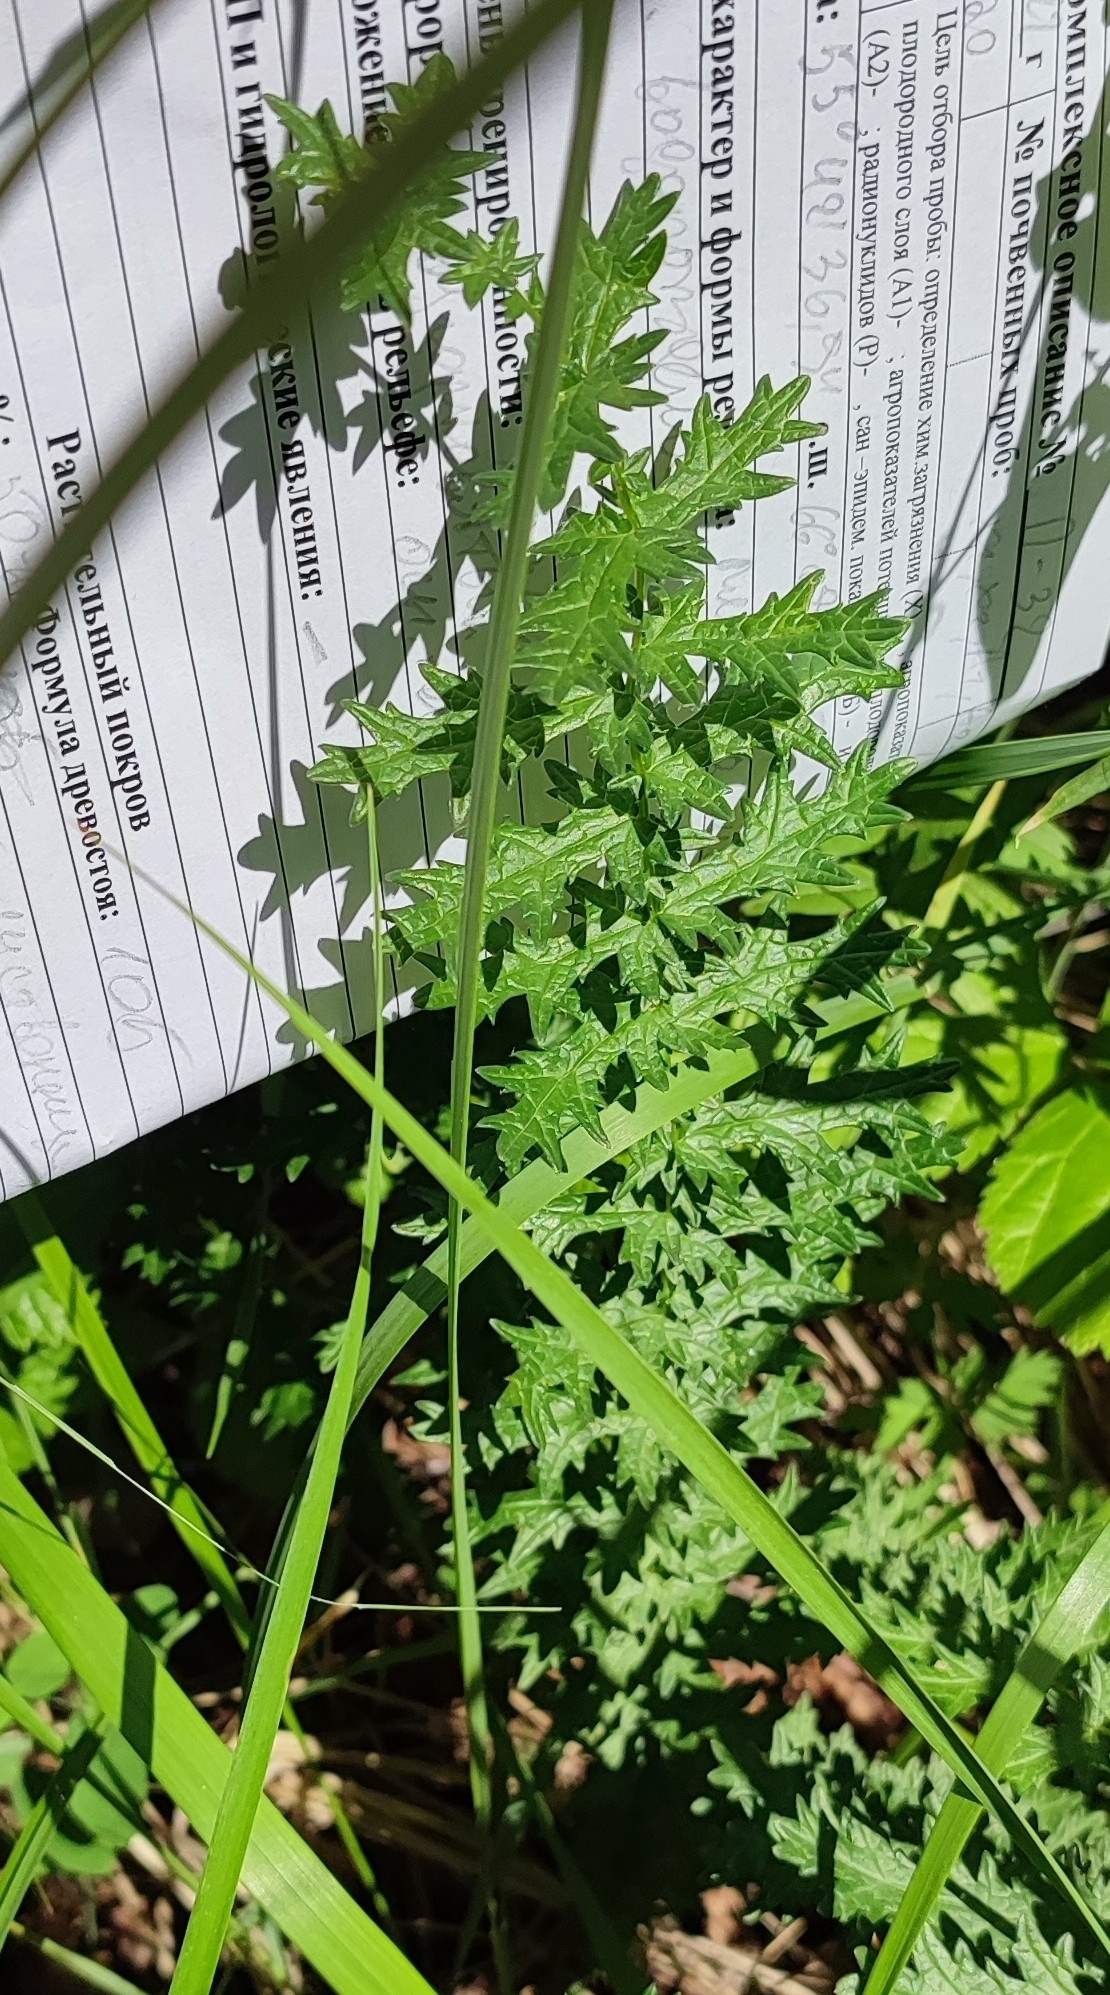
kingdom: Plantae
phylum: Tracheophyta
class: Magnoliopsida
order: Rosales
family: Rosaceae
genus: Filipendula
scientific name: Filipendula vulgaris
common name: Dropwort
